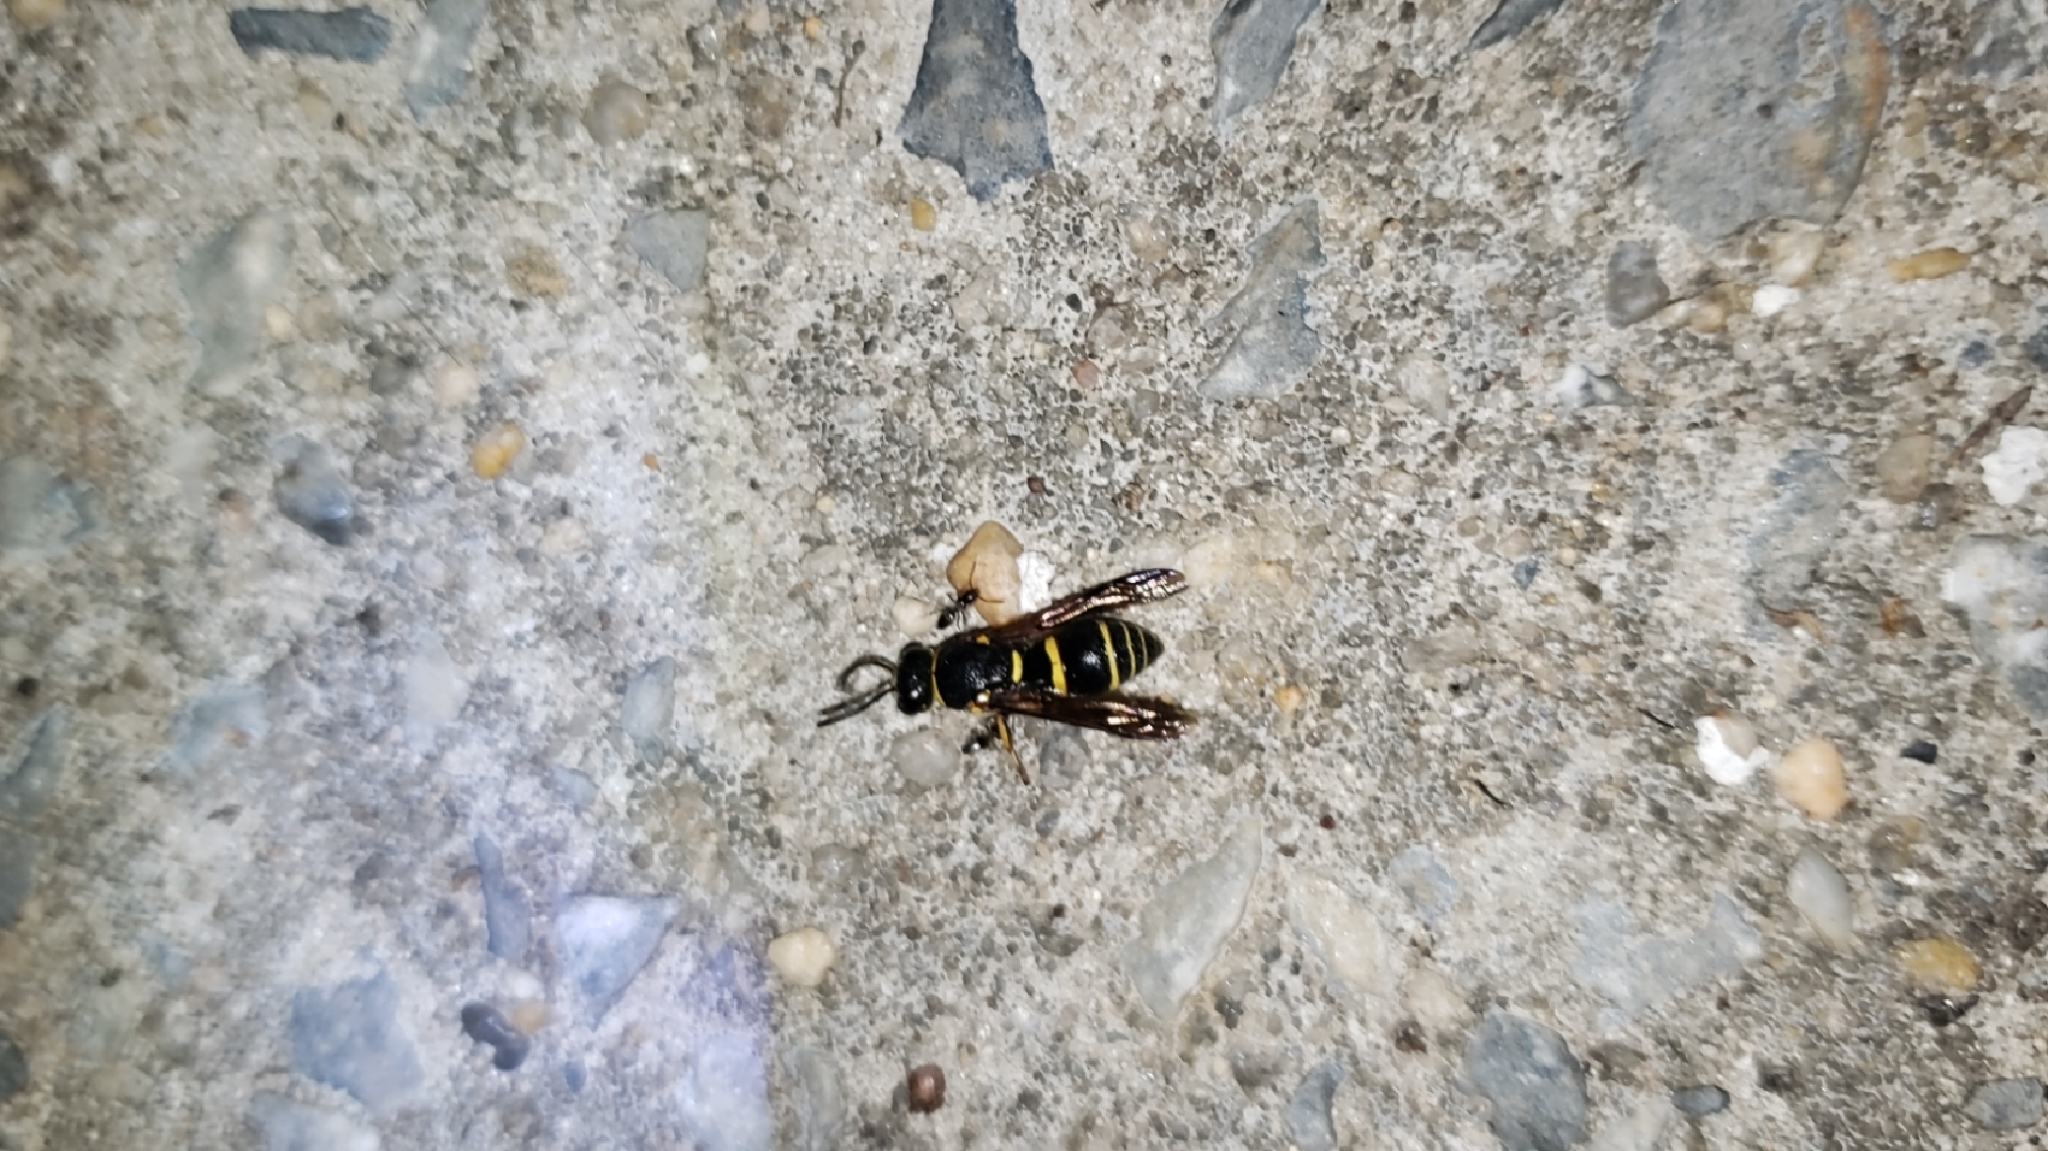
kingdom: Animalia
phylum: Arthropoda
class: Insecta
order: Hymenoptera
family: Eumenidae
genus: Euodynerus
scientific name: Euodynerus foraminatus
